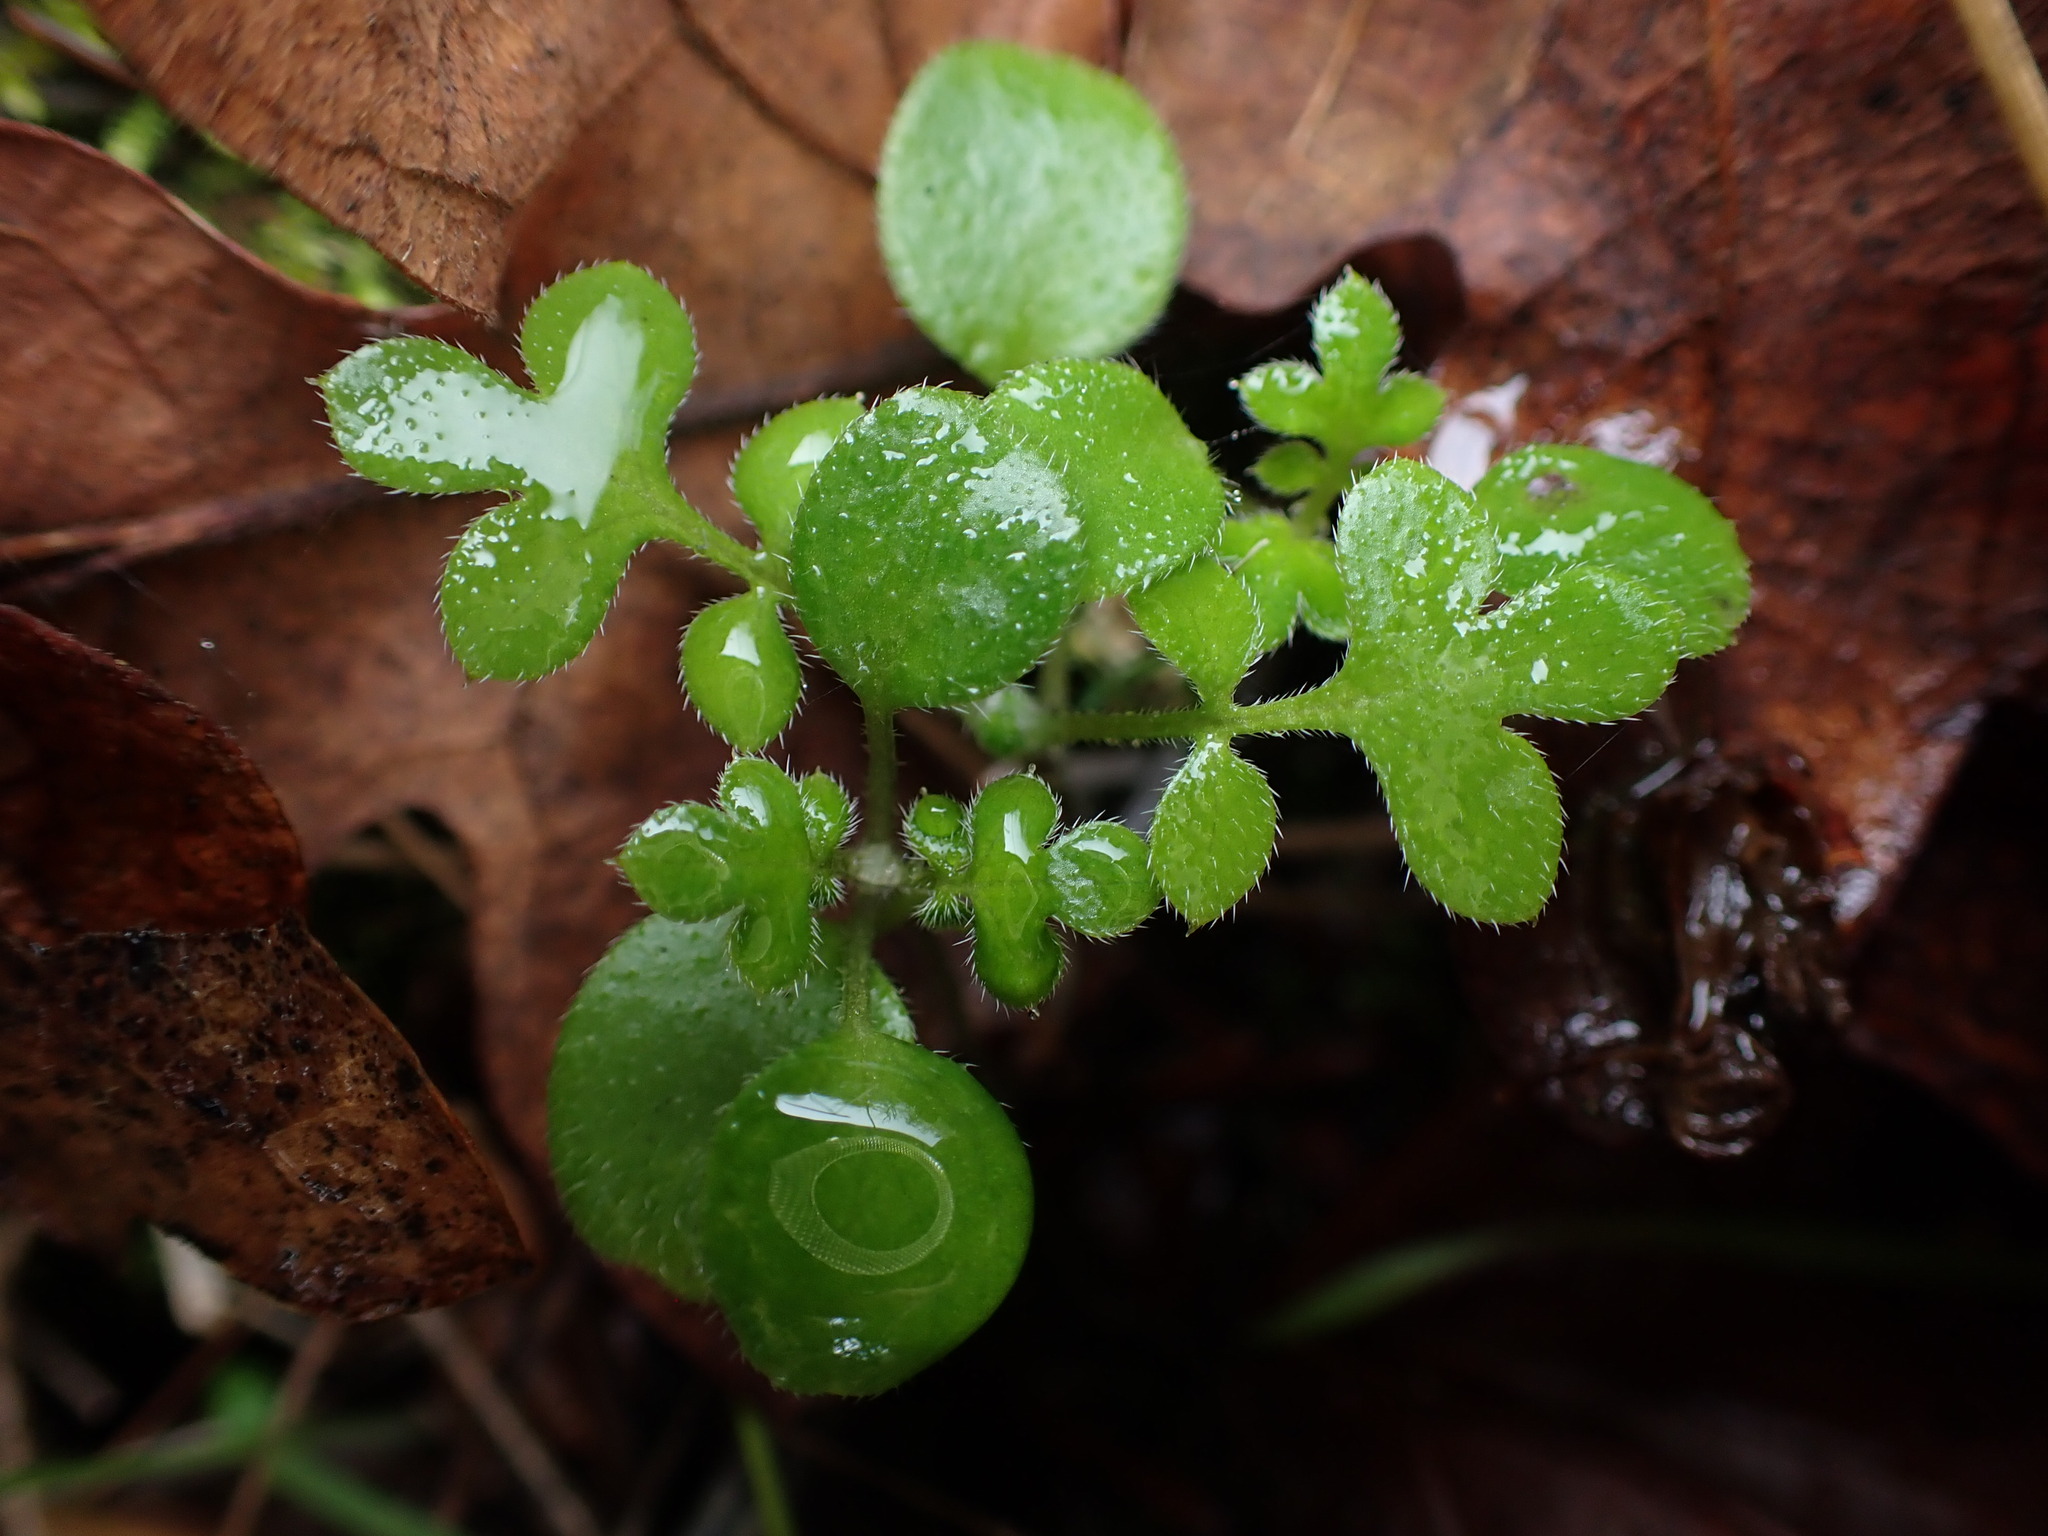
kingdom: Plantae
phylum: Tracheophyta
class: Magnoliopsida
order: Boraginales
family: Hydrophyllaceae
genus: Nemophila
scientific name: Nemophila parviflora
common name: Small-flowered baby-blue-eyes
